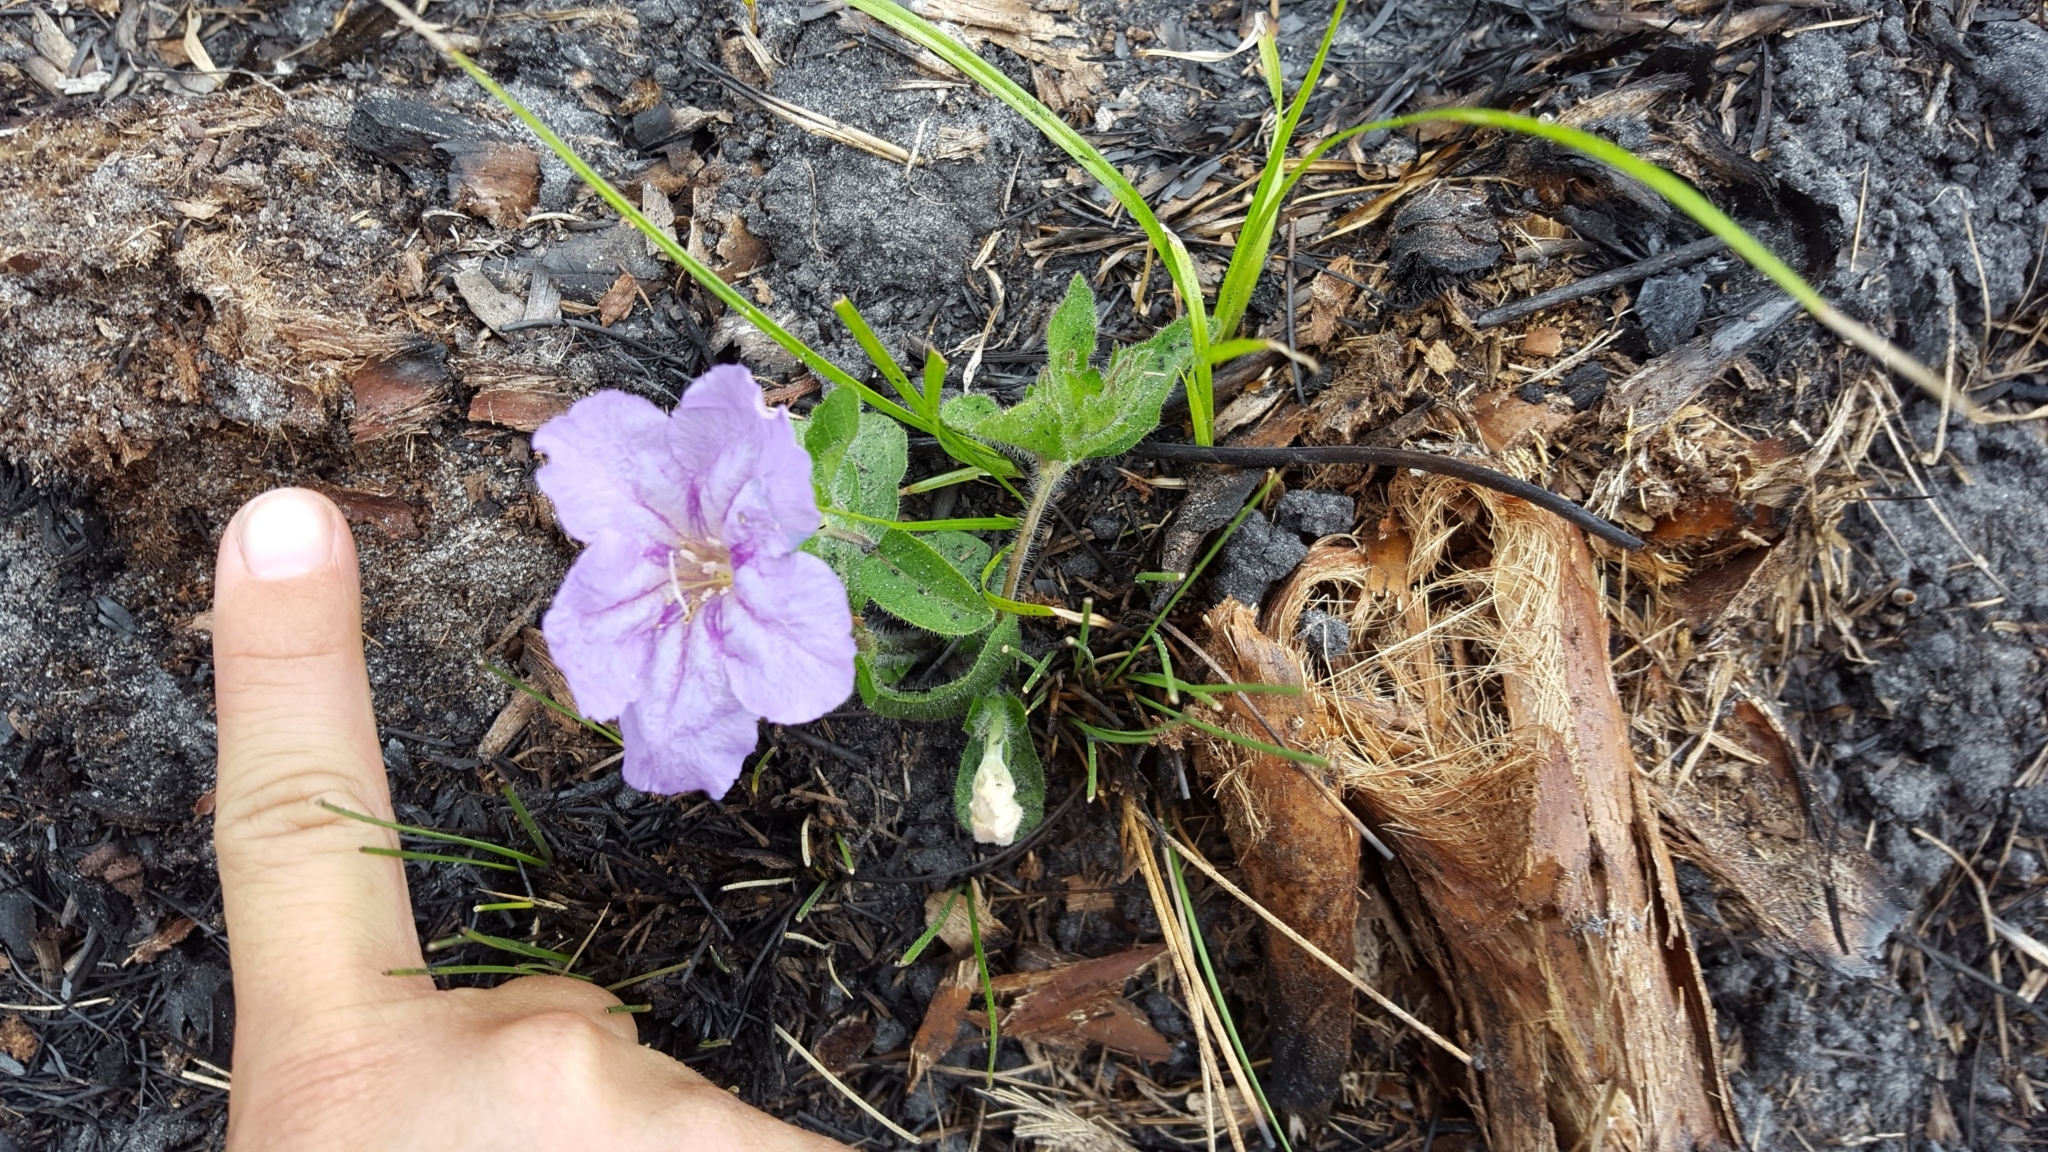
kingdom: Plantae
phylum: Tracheophyta
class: Magnoliopsida
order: Lamiales
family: Acanthaceae
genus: Ruellia
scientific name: Ruellia caroliniensis
